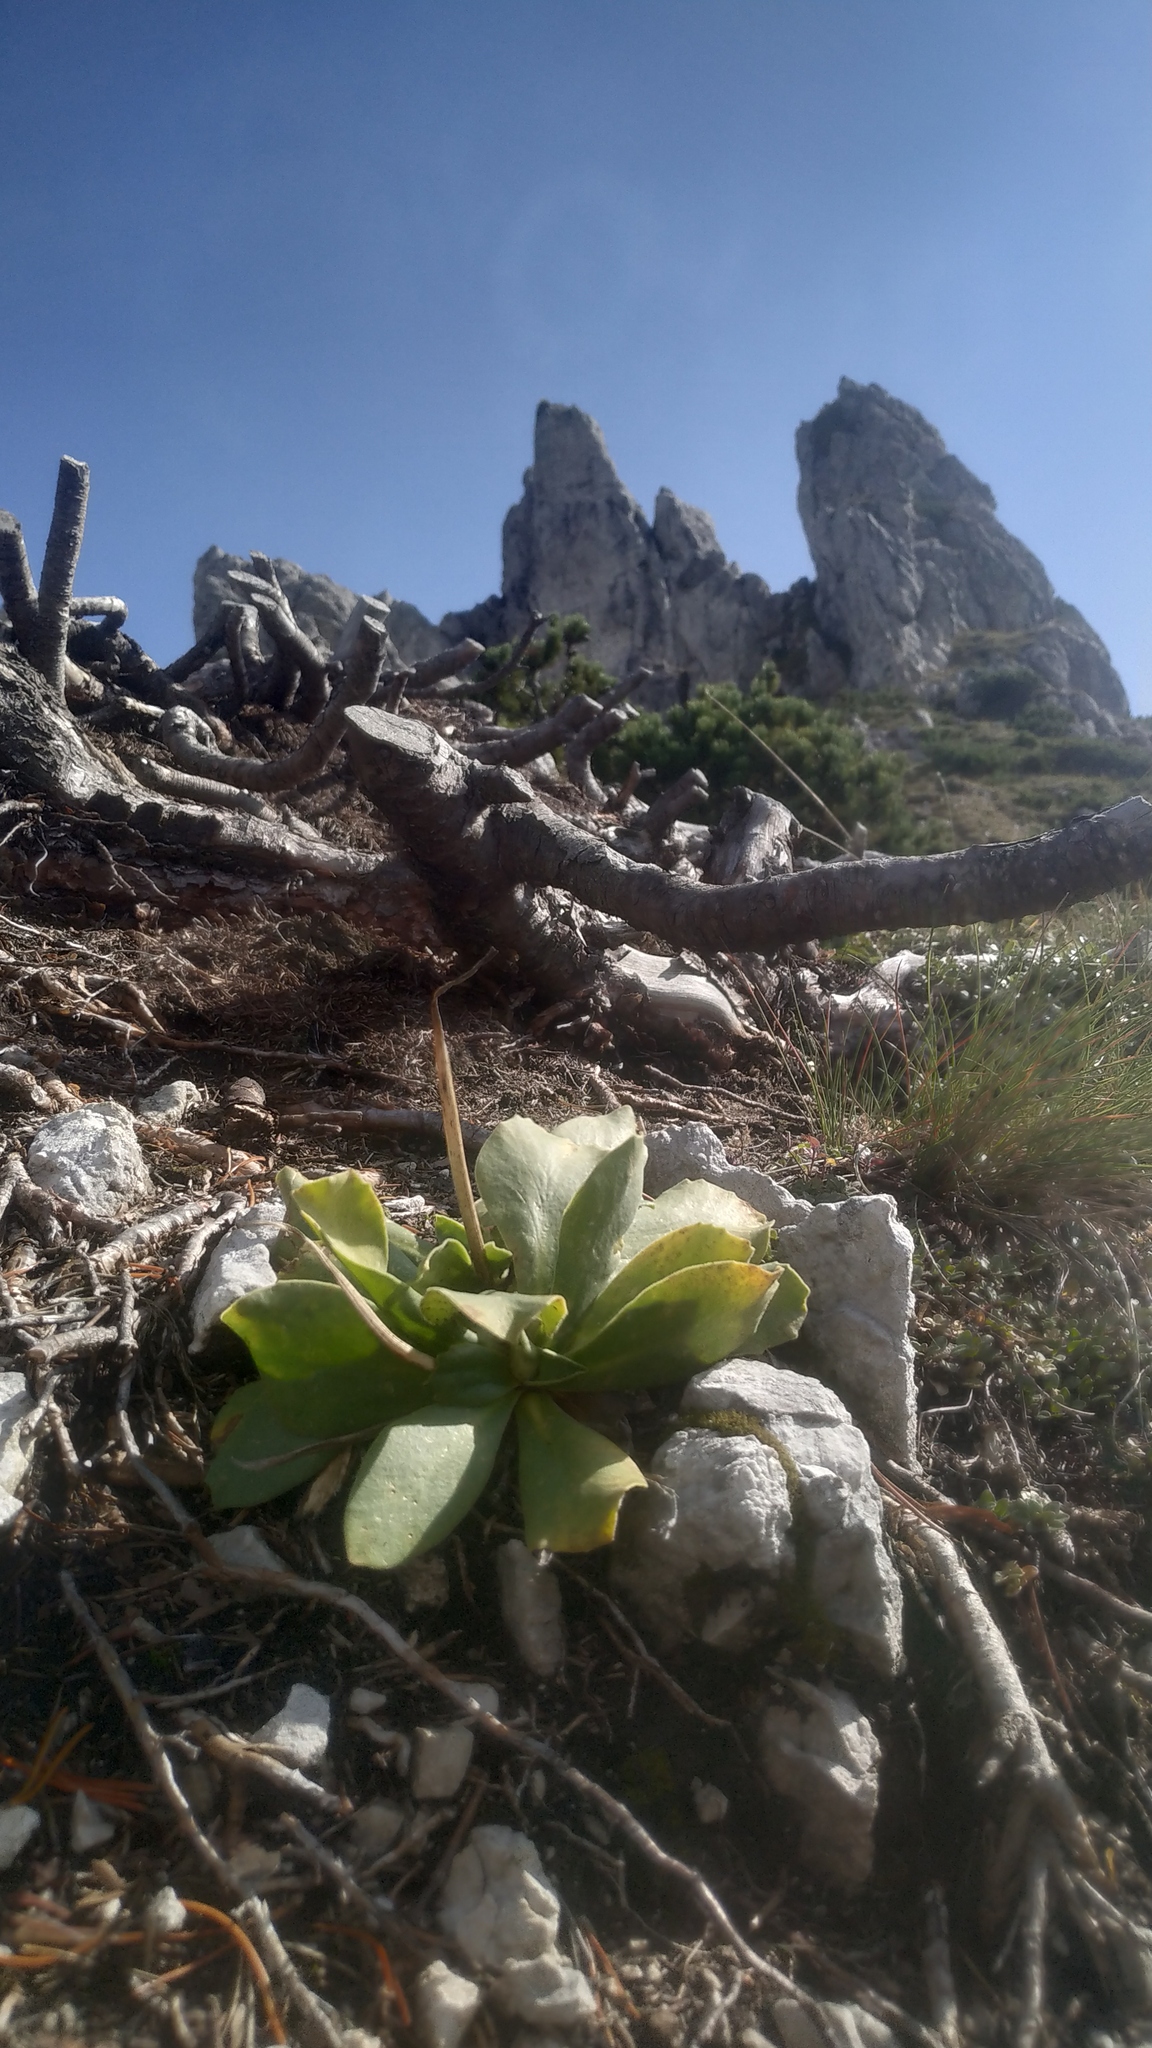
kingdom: Plantae
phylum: Tracheophyta
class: Magnoliopsida
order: Ericales
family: Primulaceae
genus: Primula
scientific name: Primula auricula
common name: Auricula
